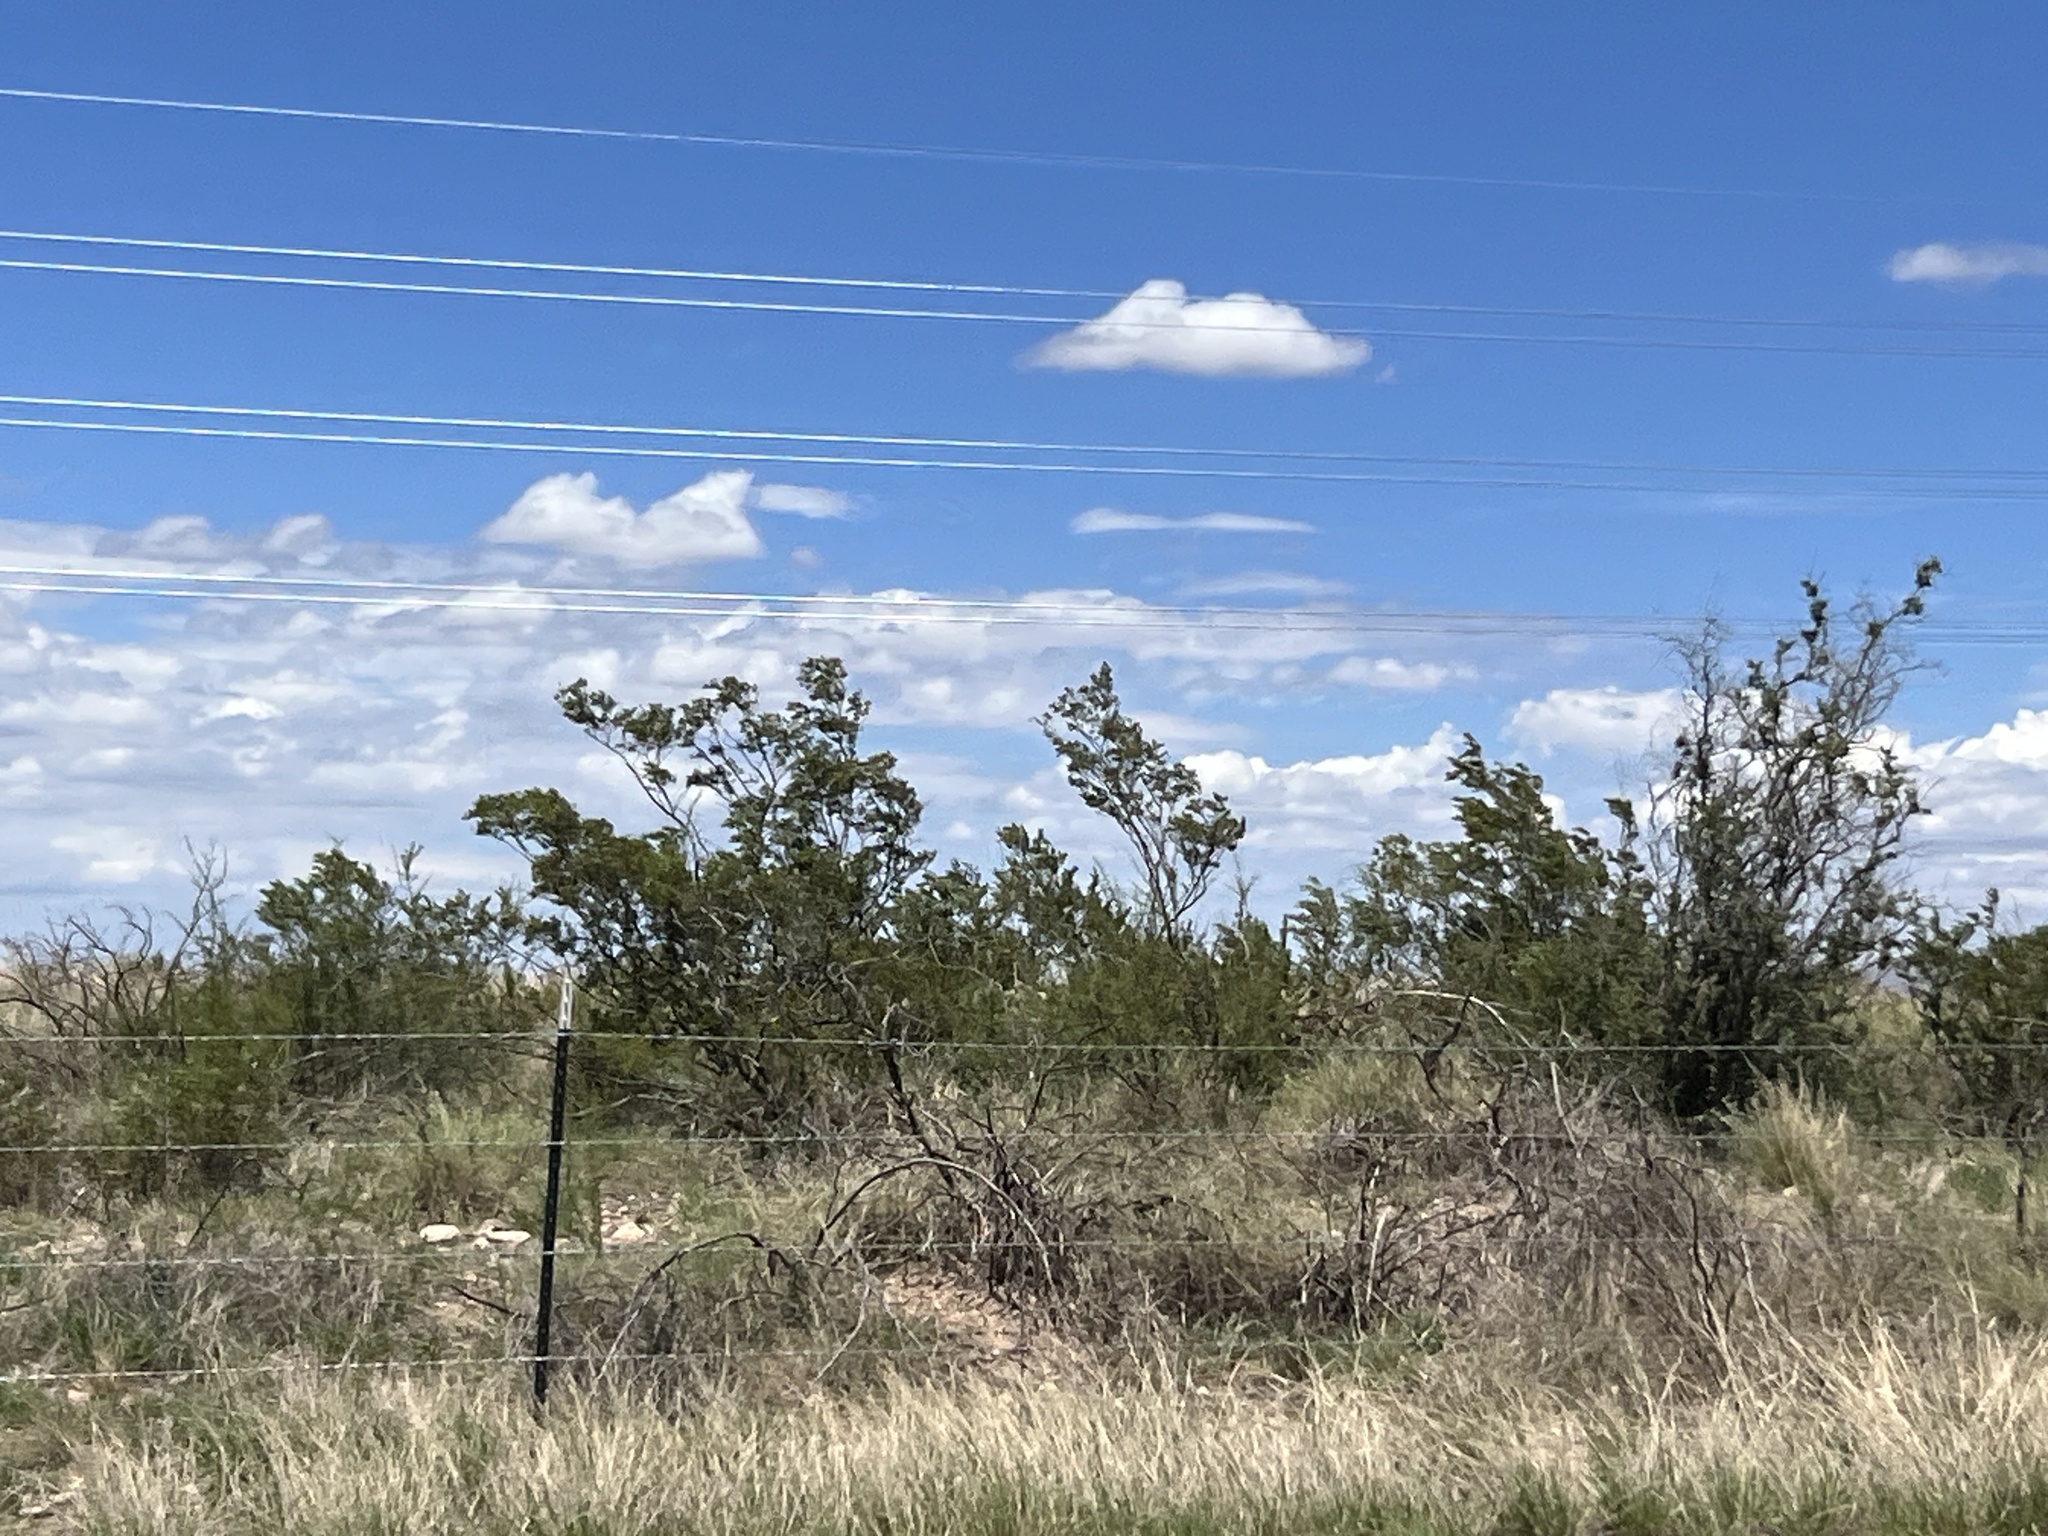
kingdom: Plantae
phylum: Tracheophyta
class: Magnoliopsida
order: Zygophyllales
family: Zygophyllaceae
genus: Larrea
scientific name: Larrea tridentata
